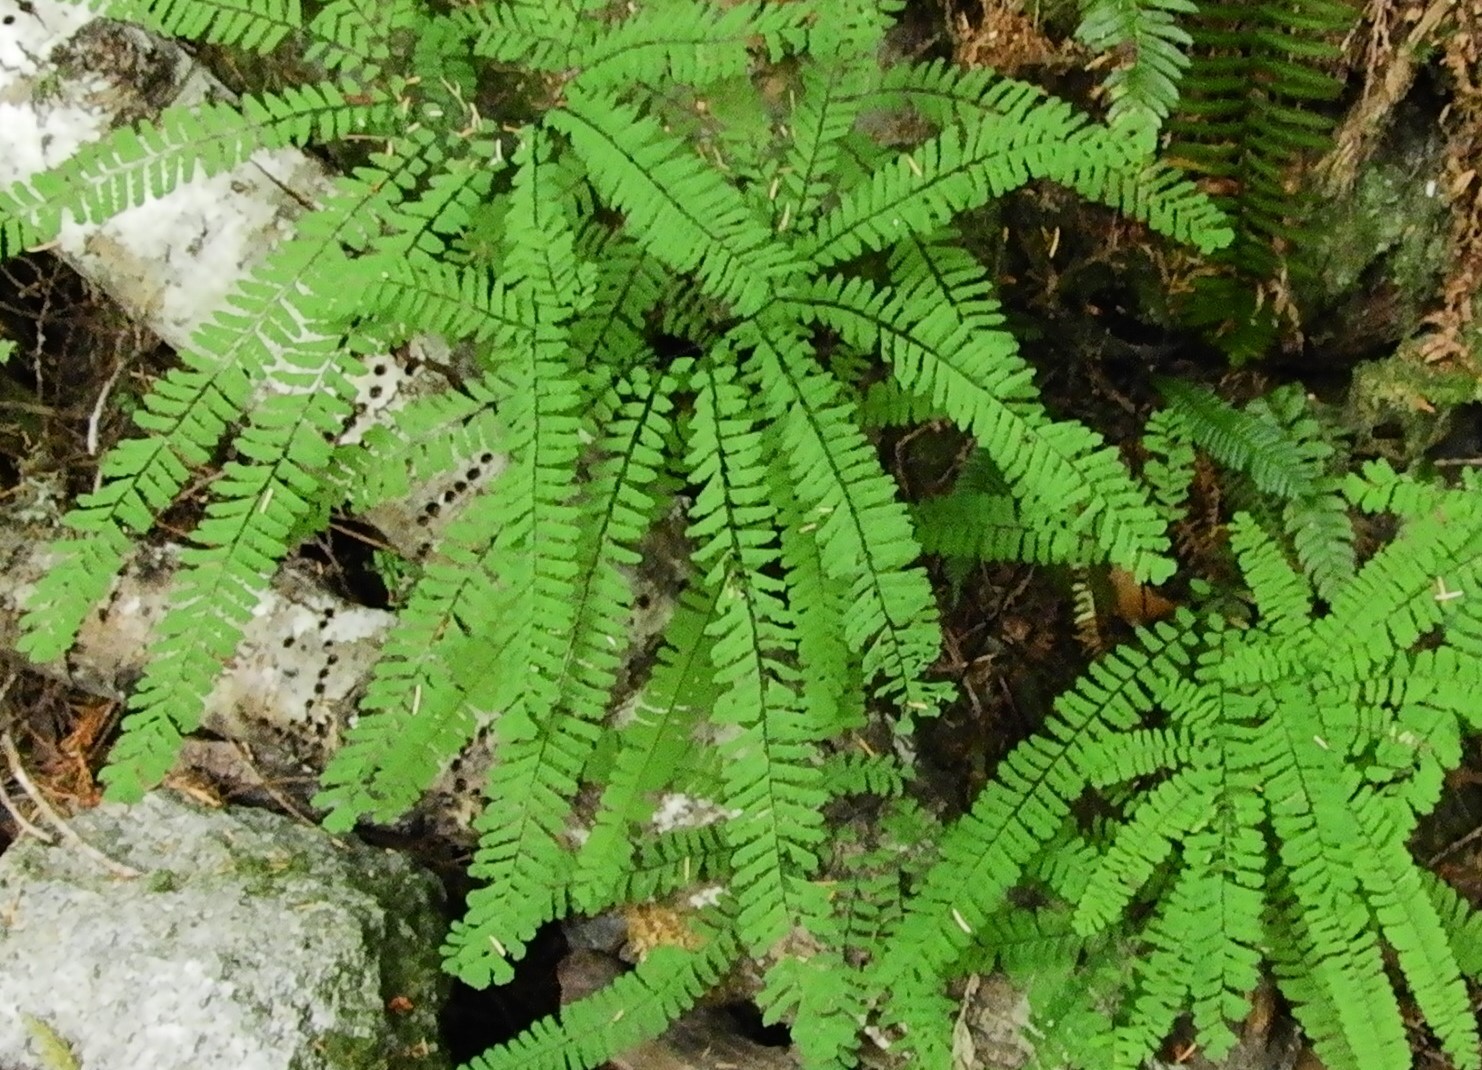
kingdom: Plantae
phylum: Tracheophyta
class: Polypodiopsida
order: Polypodiales
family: Pteridaceae
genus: Adiantum
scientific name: Adiantum aleuticum
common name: Aleutian maidenhair fern
